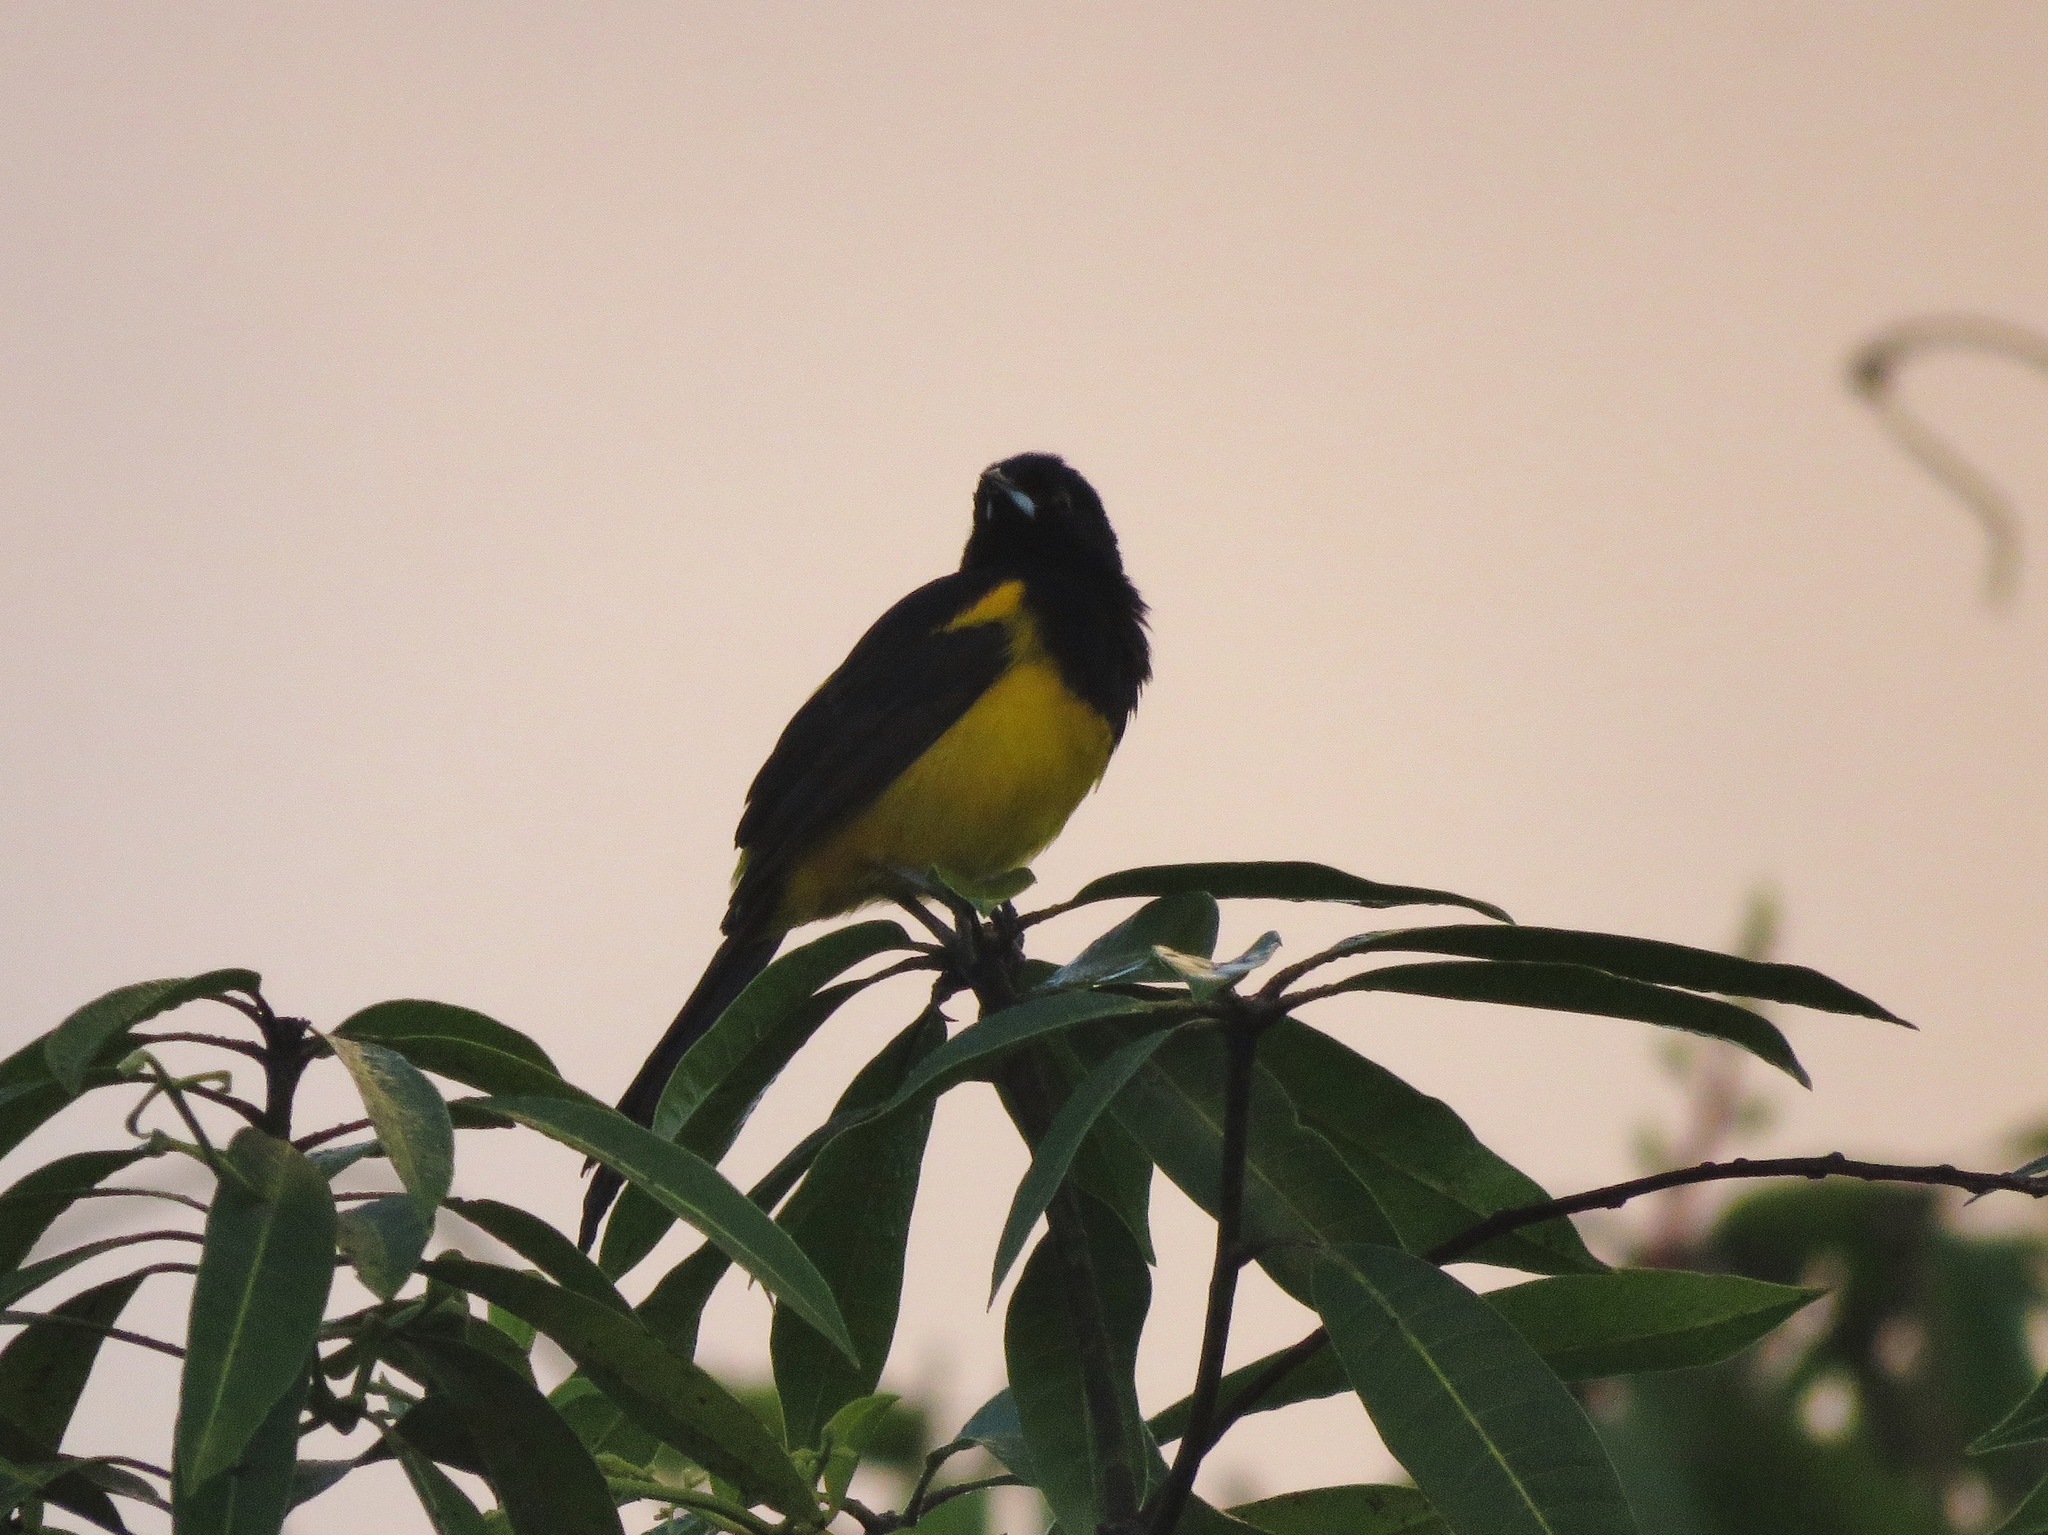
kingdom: Animalia
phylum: Chordata
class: Aves
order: Passeriformes
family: Icteridae
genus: Icterus
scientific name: Icterus prosthemelas
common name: Black-cowled oriole
